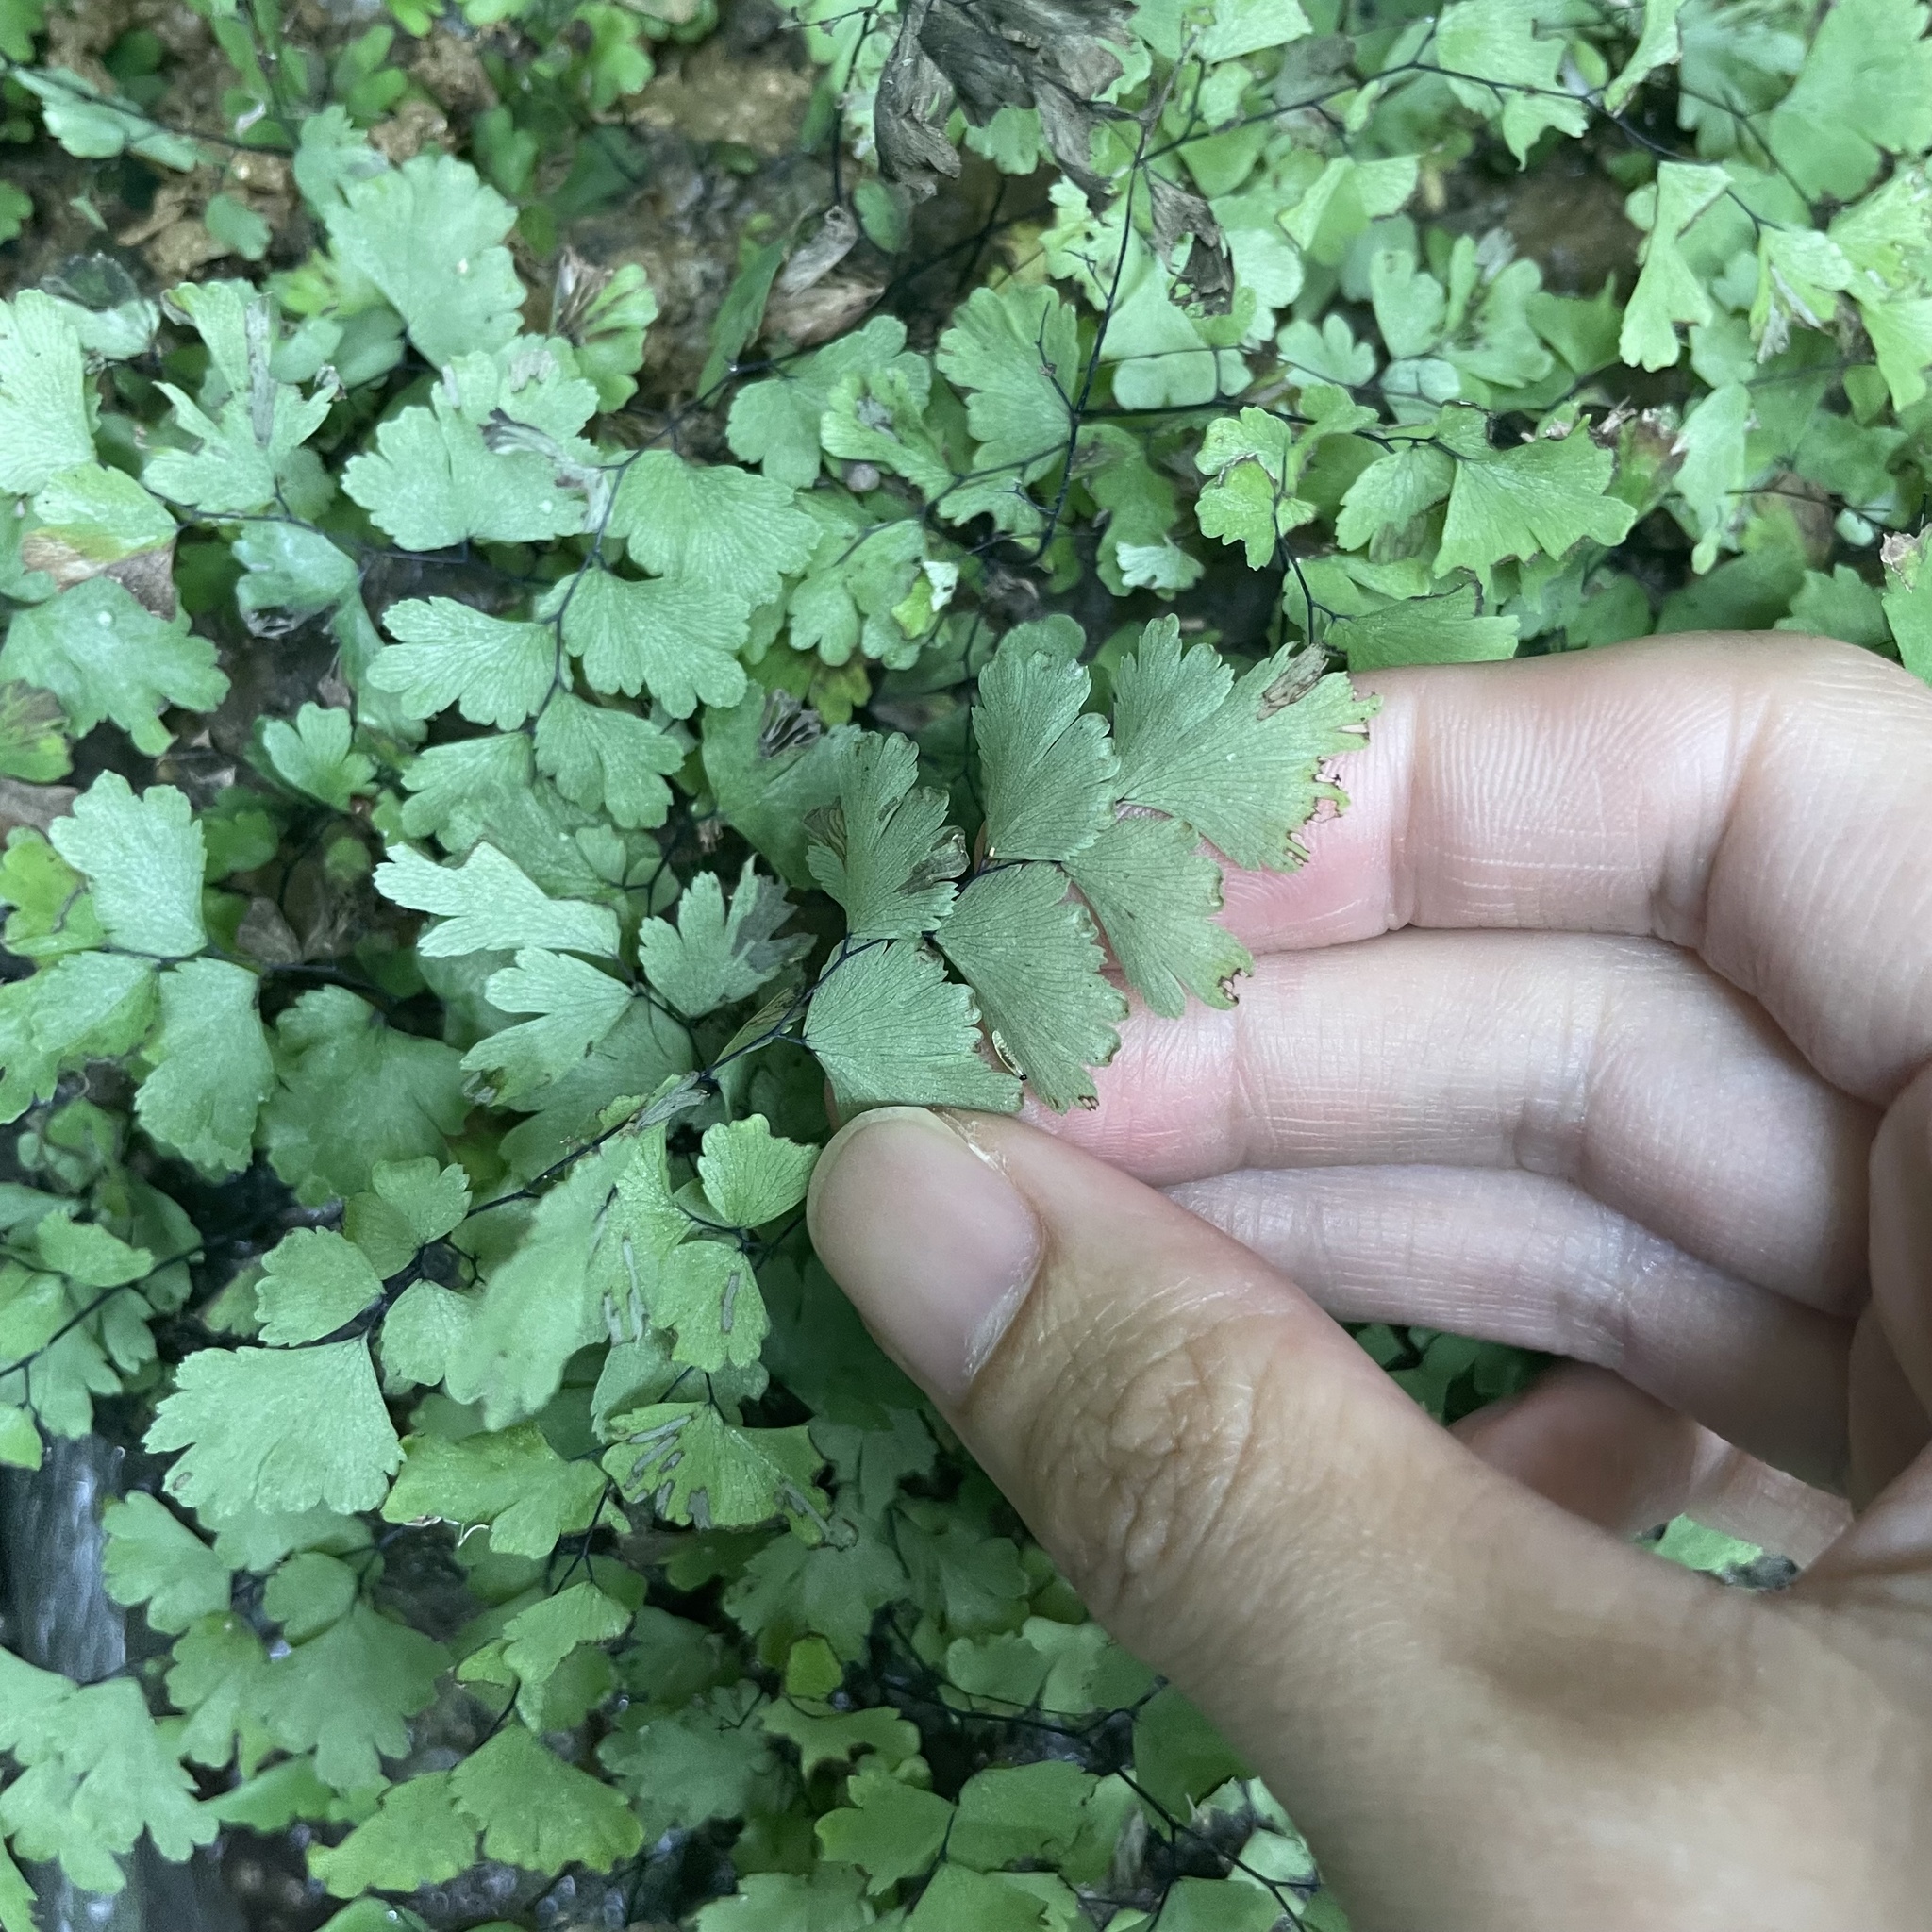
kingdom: Plantae
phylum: Tracheophyta
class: Polypodiopsida
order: Polypodiales
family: Pteridaceae
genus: Adiantum
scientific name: Adiantum capillus-veneris
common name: Maidenhair fern
